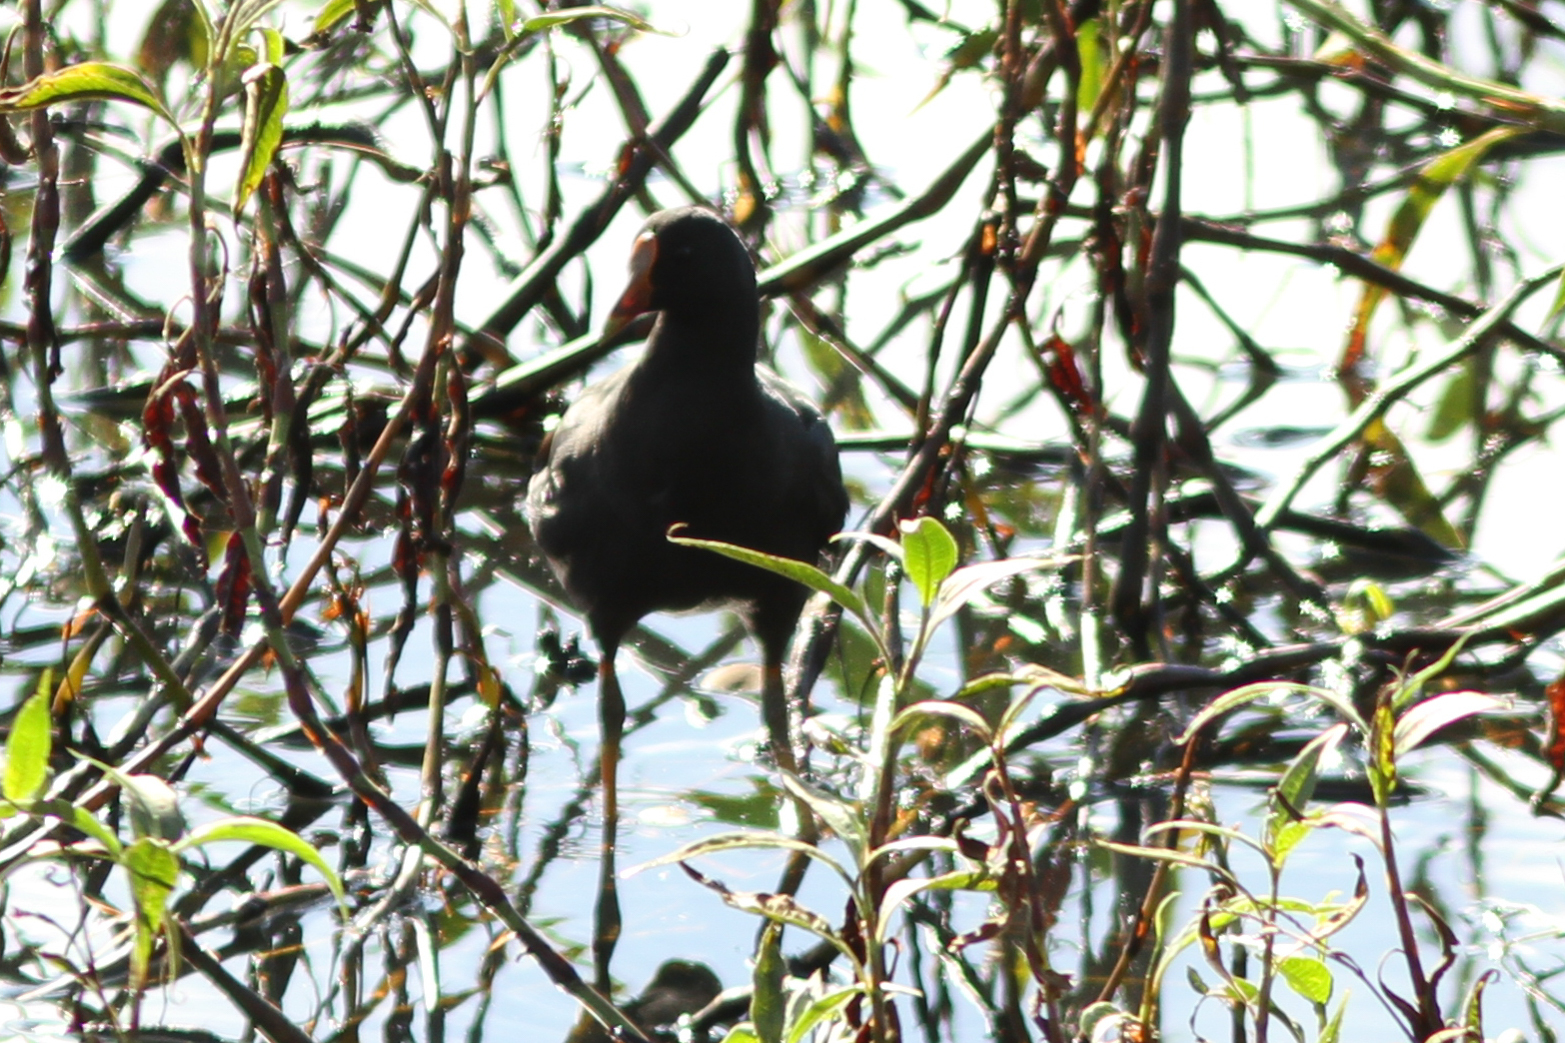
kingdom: Animalia
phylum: Chordata
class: Aves
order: Gruiformes
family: Rallidae
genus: Gallinula
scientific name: Gallinula tenebrosa
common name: Dusky moorhen
